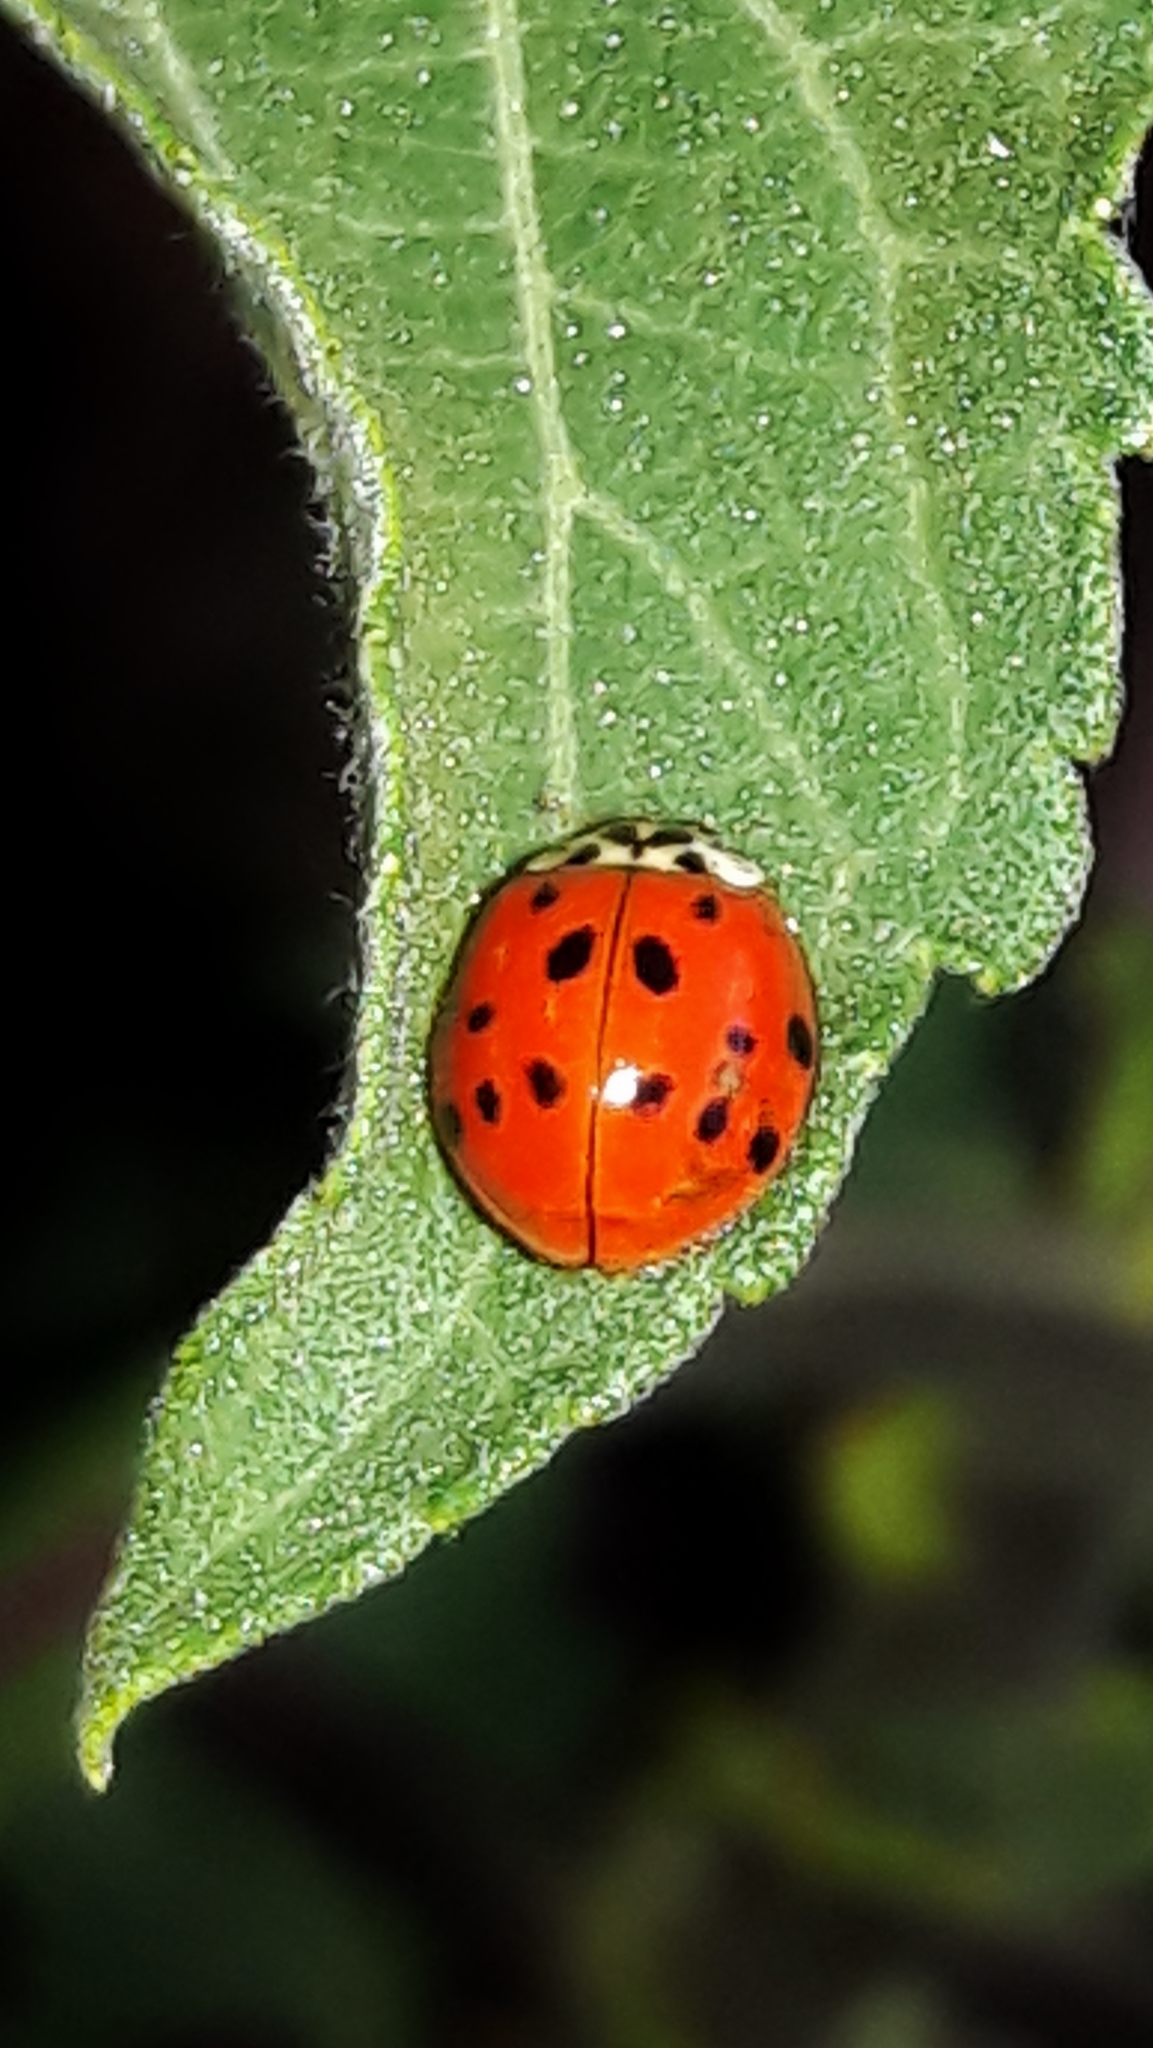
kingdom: Animalia
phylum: Arthropoda
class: Insecta
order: Coleoptera
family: Coccinellidae
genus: Harmonia
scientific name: Harmonia axyridis
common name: Harlequin ladybird
